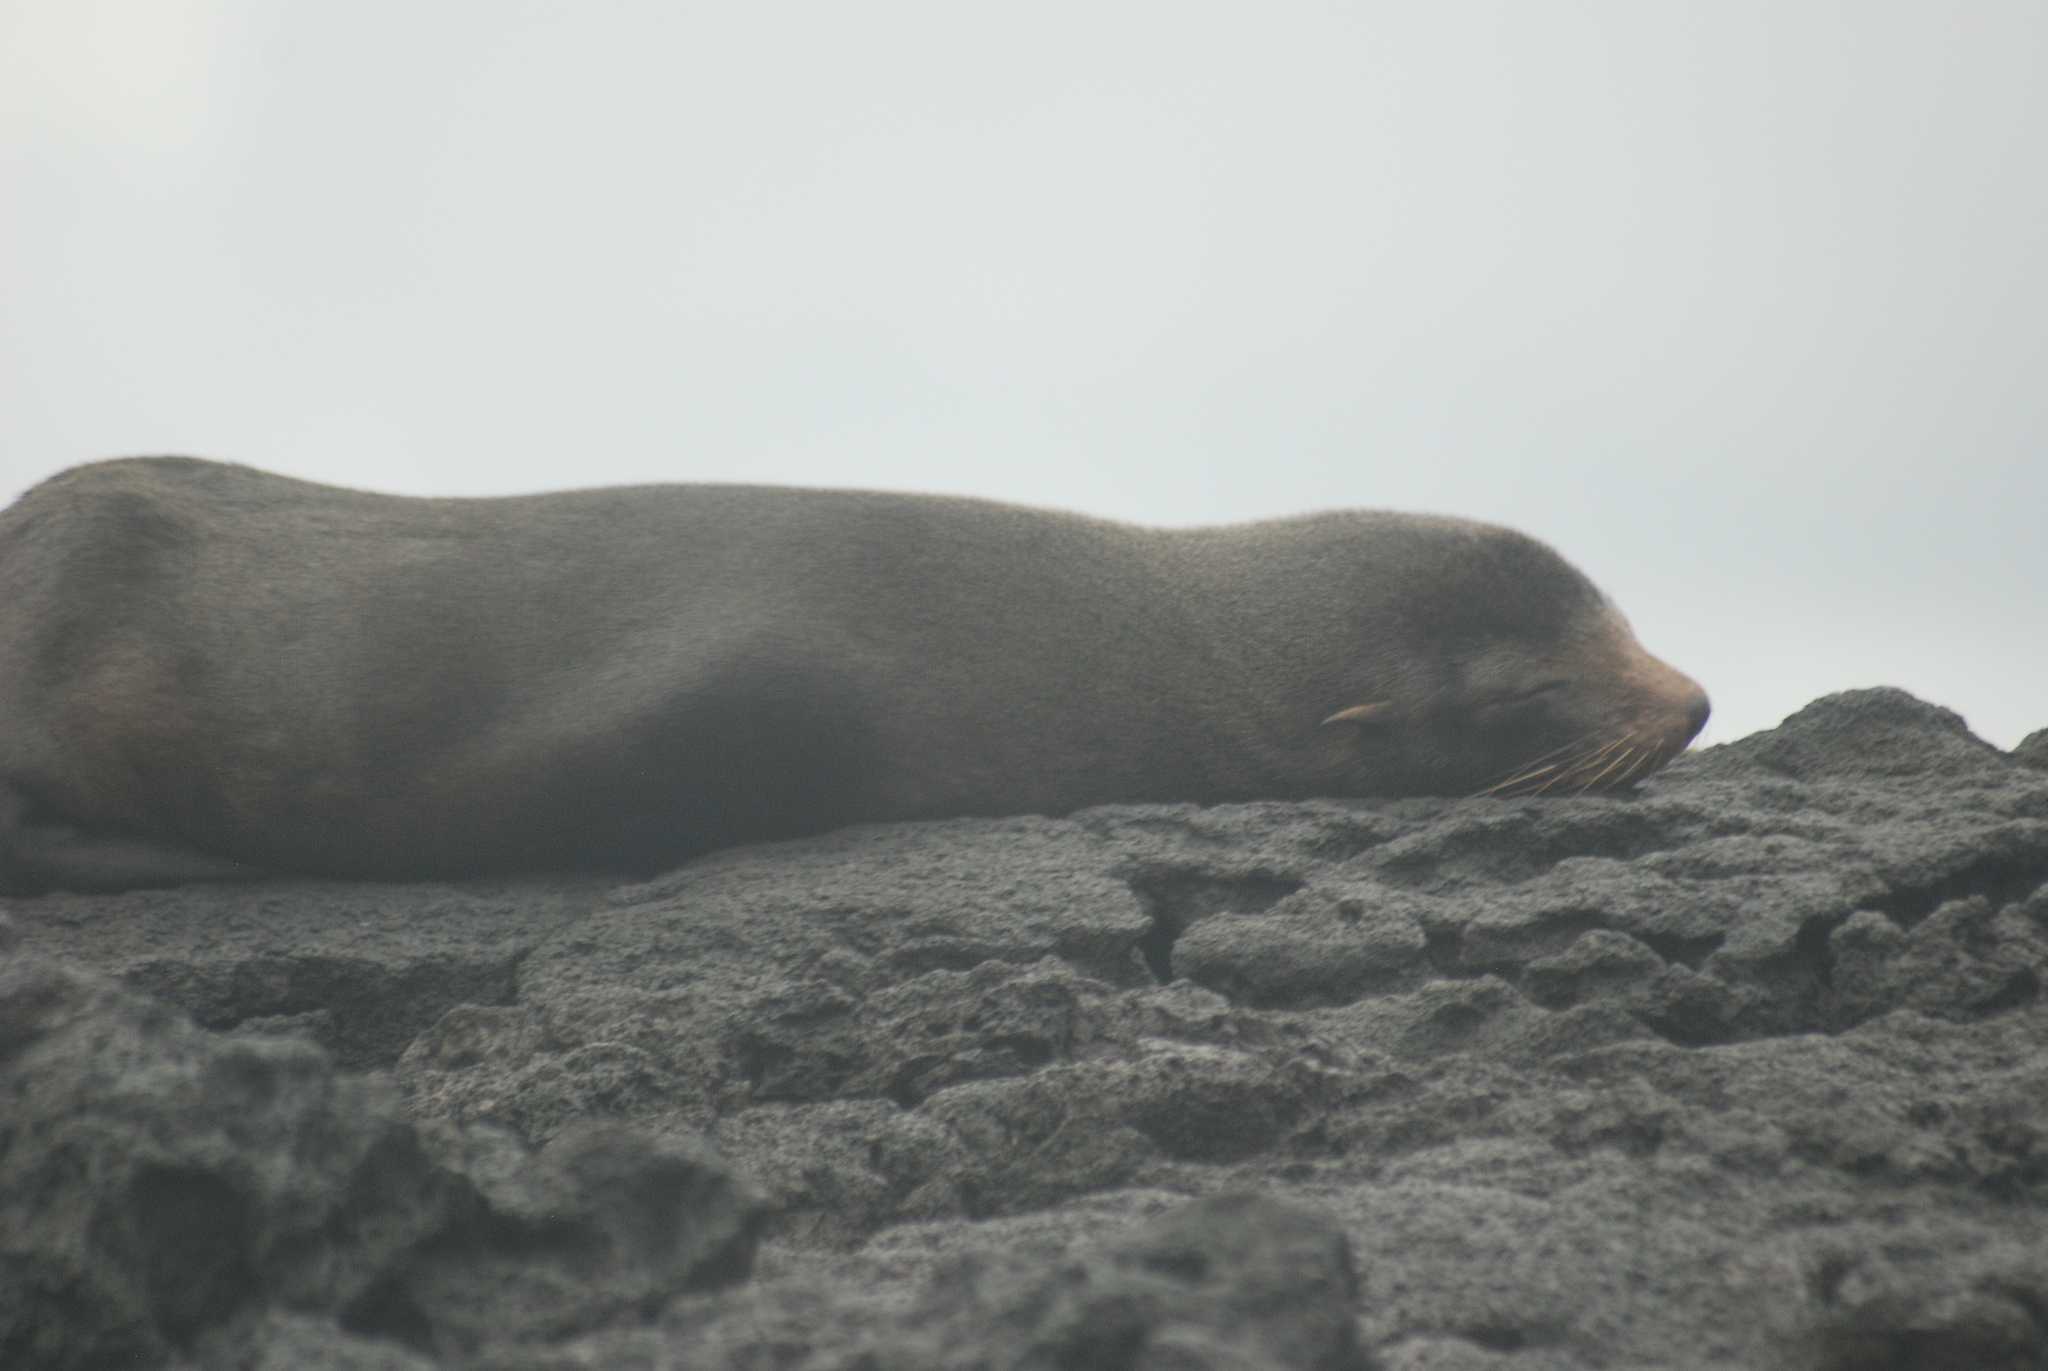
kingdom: Animalia
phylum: Chordata
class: Mammalia
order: Carnivora
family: Otariidae
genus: Arctocephalus
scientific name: Arctocephalus galapagoensis
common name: Galapagos fur seal
